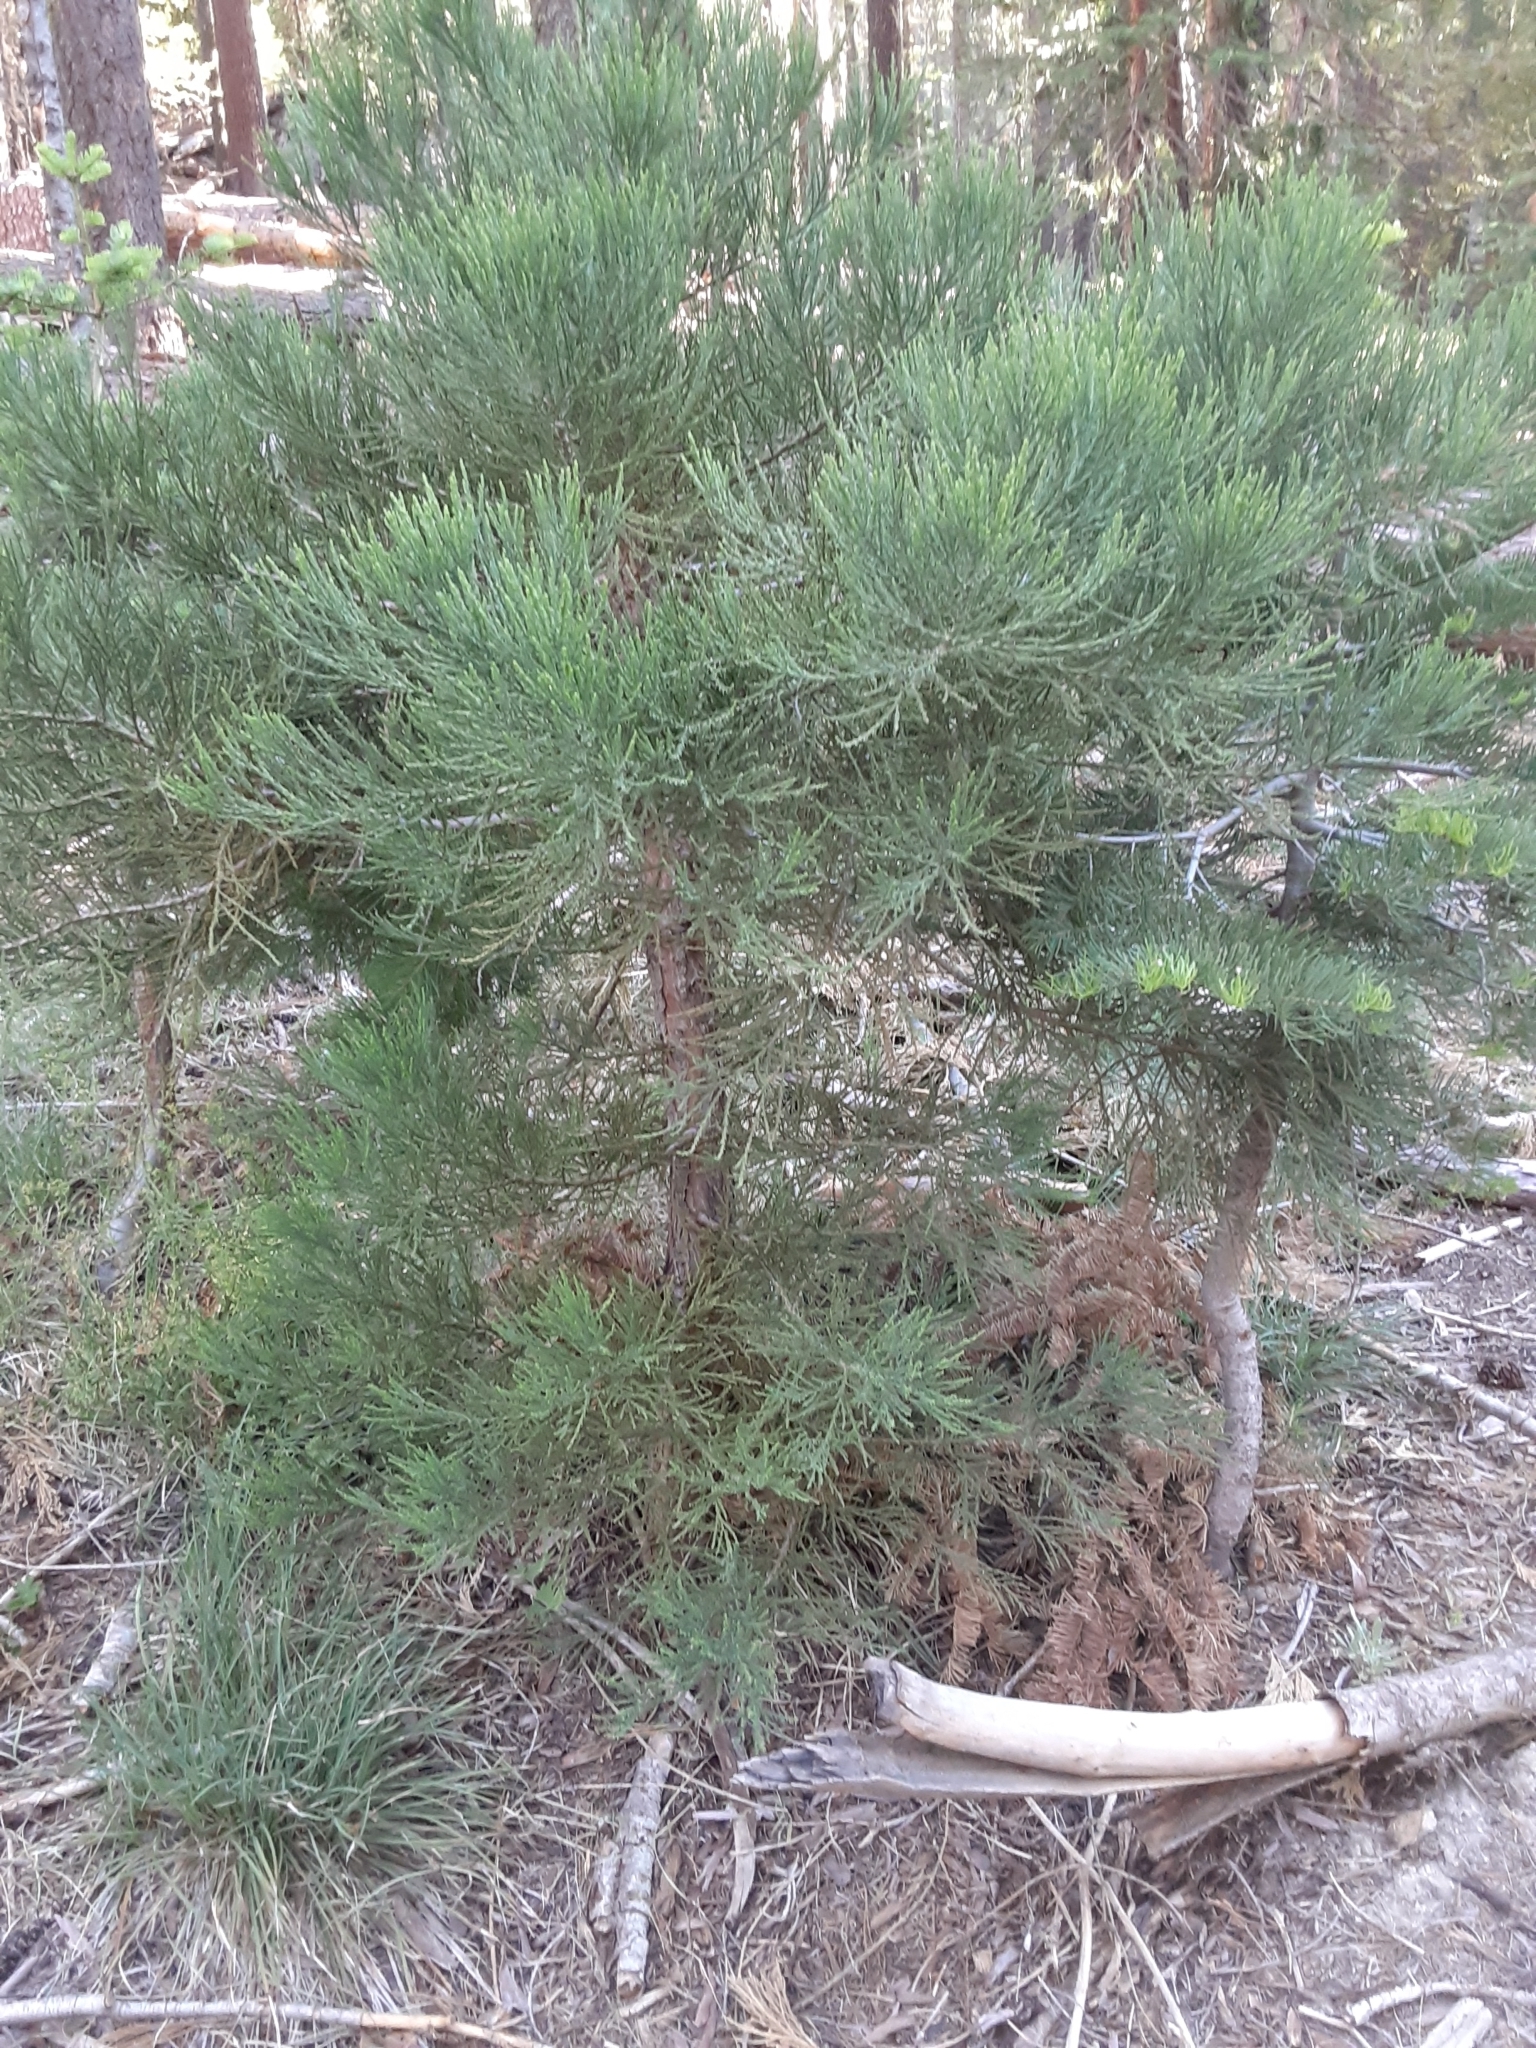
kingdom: Plantae
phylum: Tracheophyta
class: Pinopsida
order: Pinales
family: Cupressaceae
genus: Sequoiadendron
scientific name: Sequoiadendron giganteum
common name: Wellingtonia
